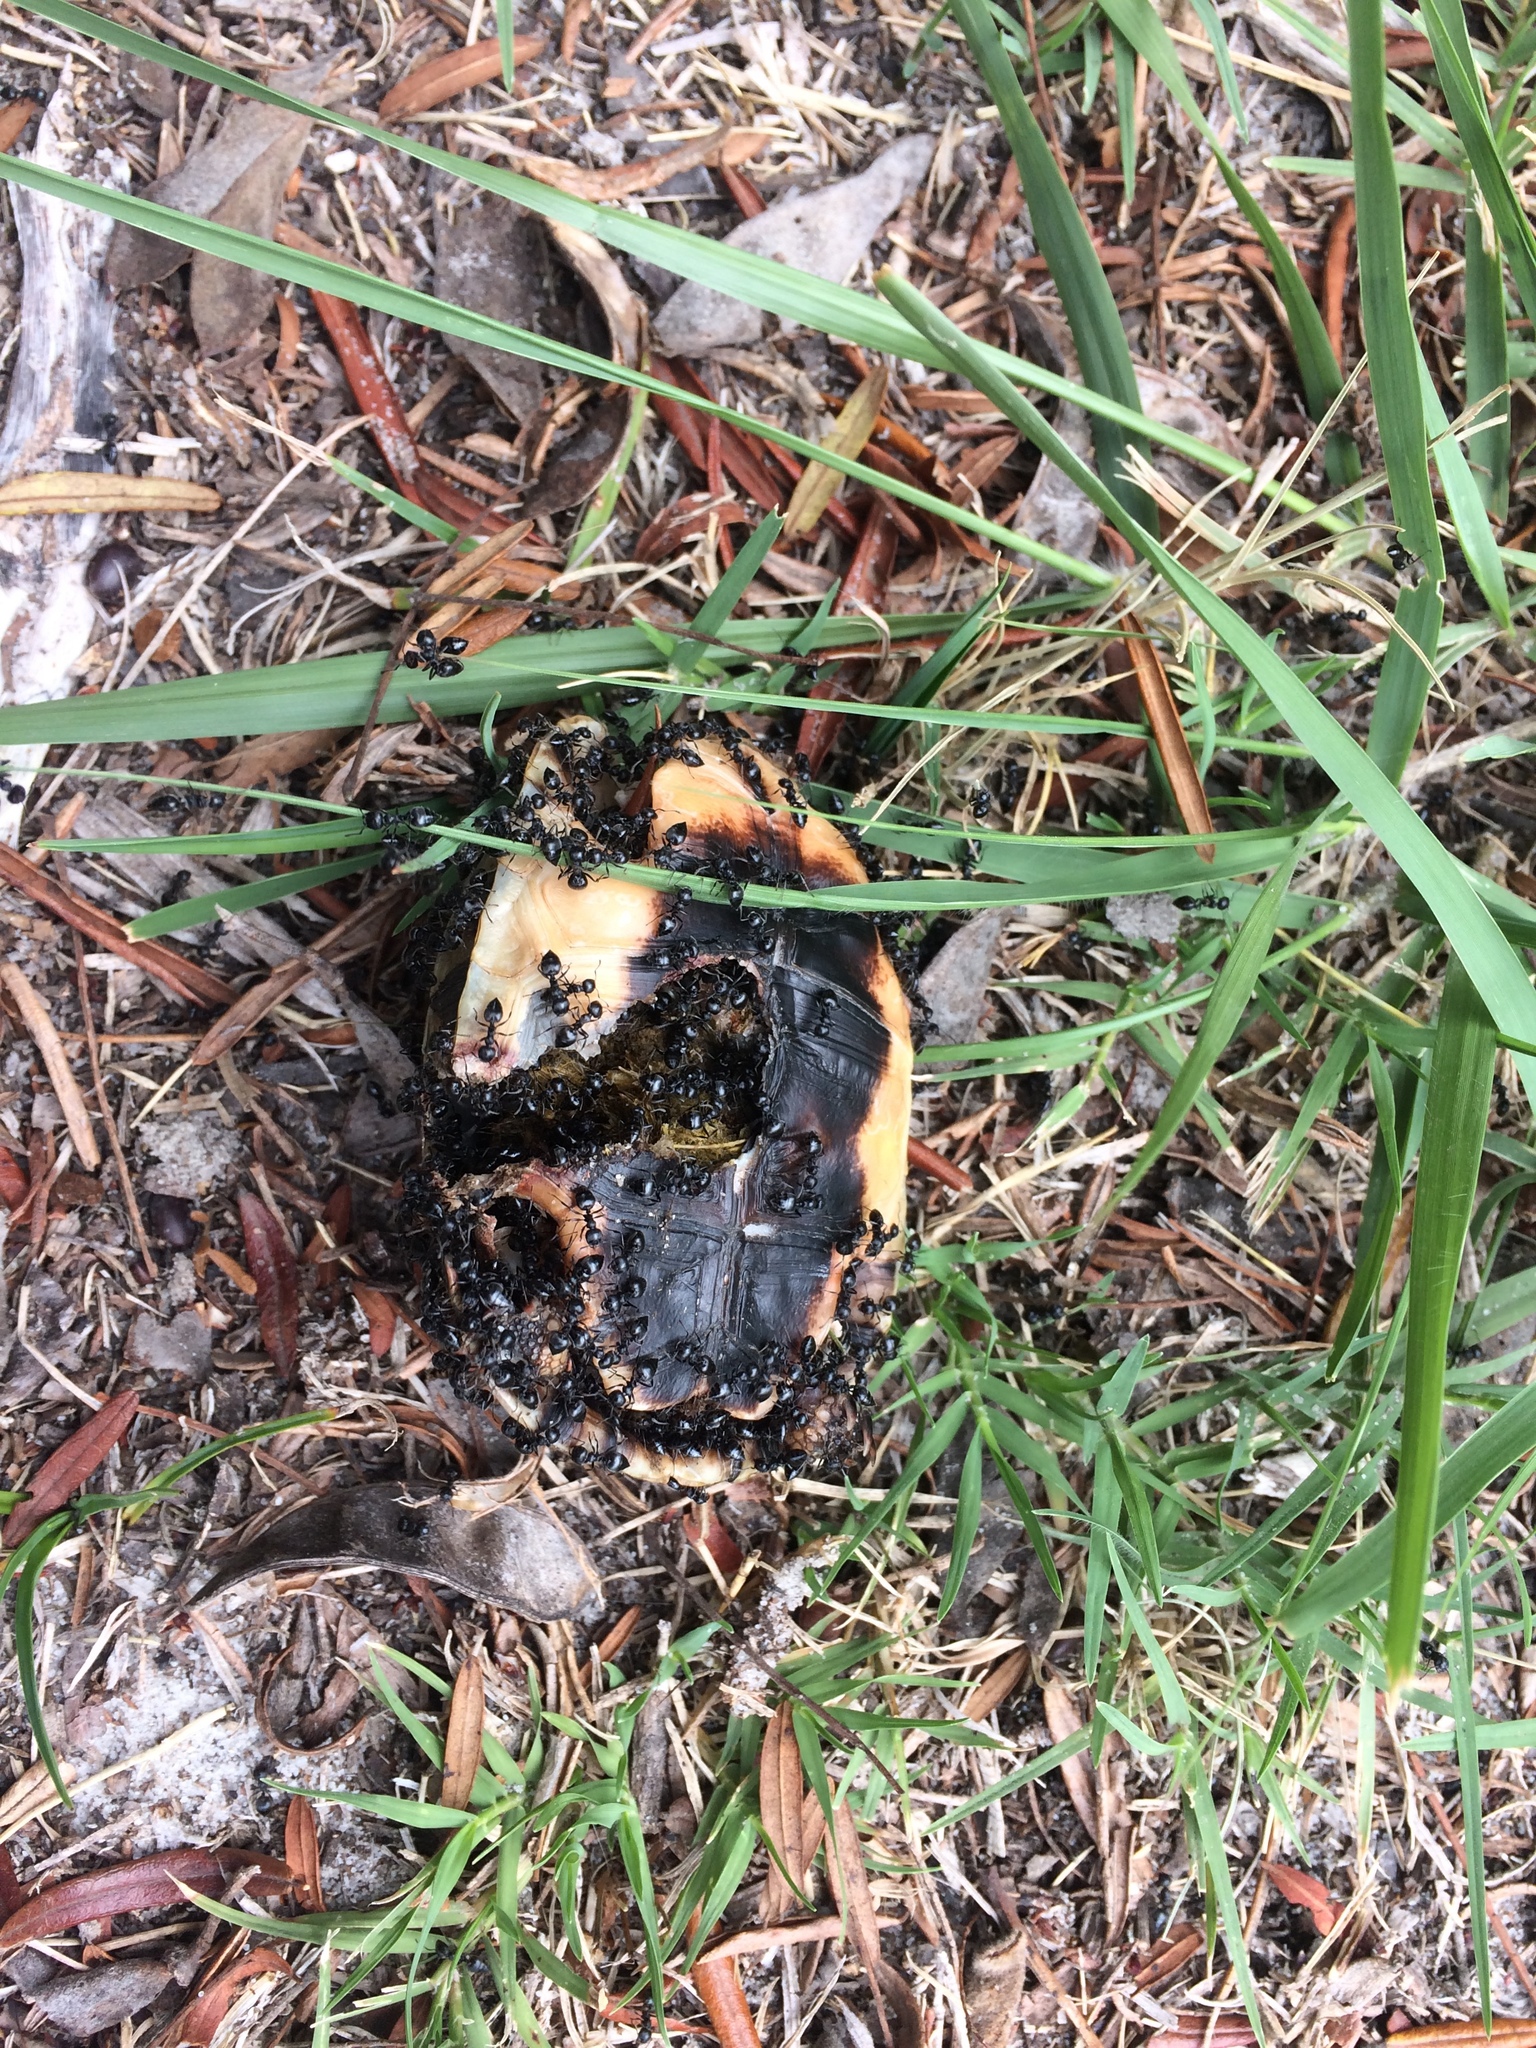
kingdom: Animalia
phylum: Chordata
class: Testudines
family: Testudinidae
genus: Chersina
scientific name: Chersina angulata
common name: South african bowsprit tortoise
